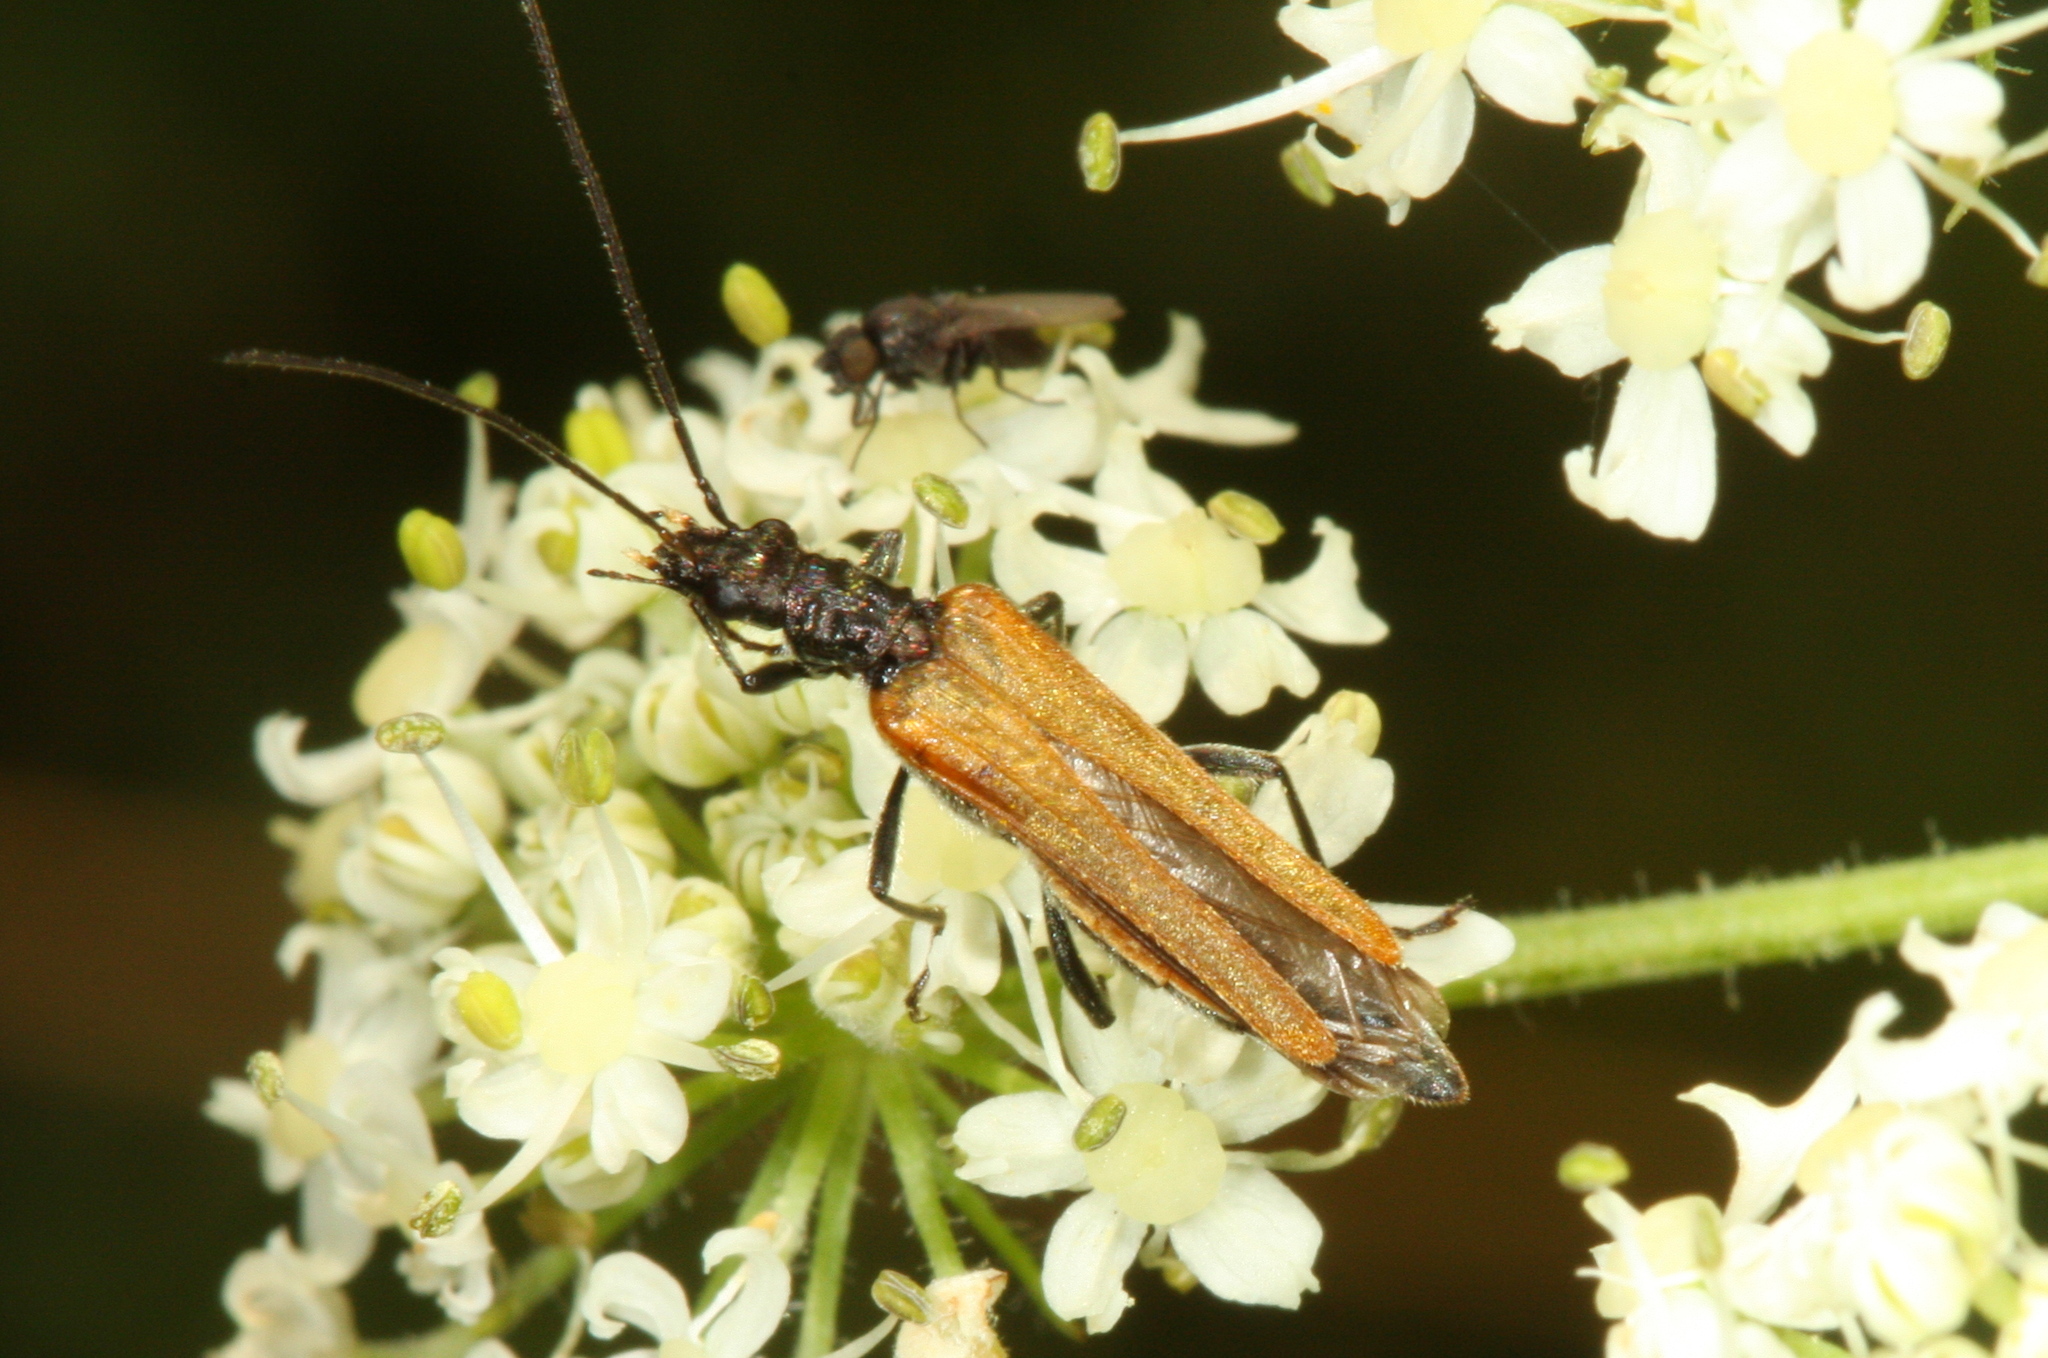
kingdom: Animalia
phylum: Arthropoda
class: Insecta
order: Coleoptera
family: Oedemeridae
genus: Oedemera
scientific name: Oedemera femorata
